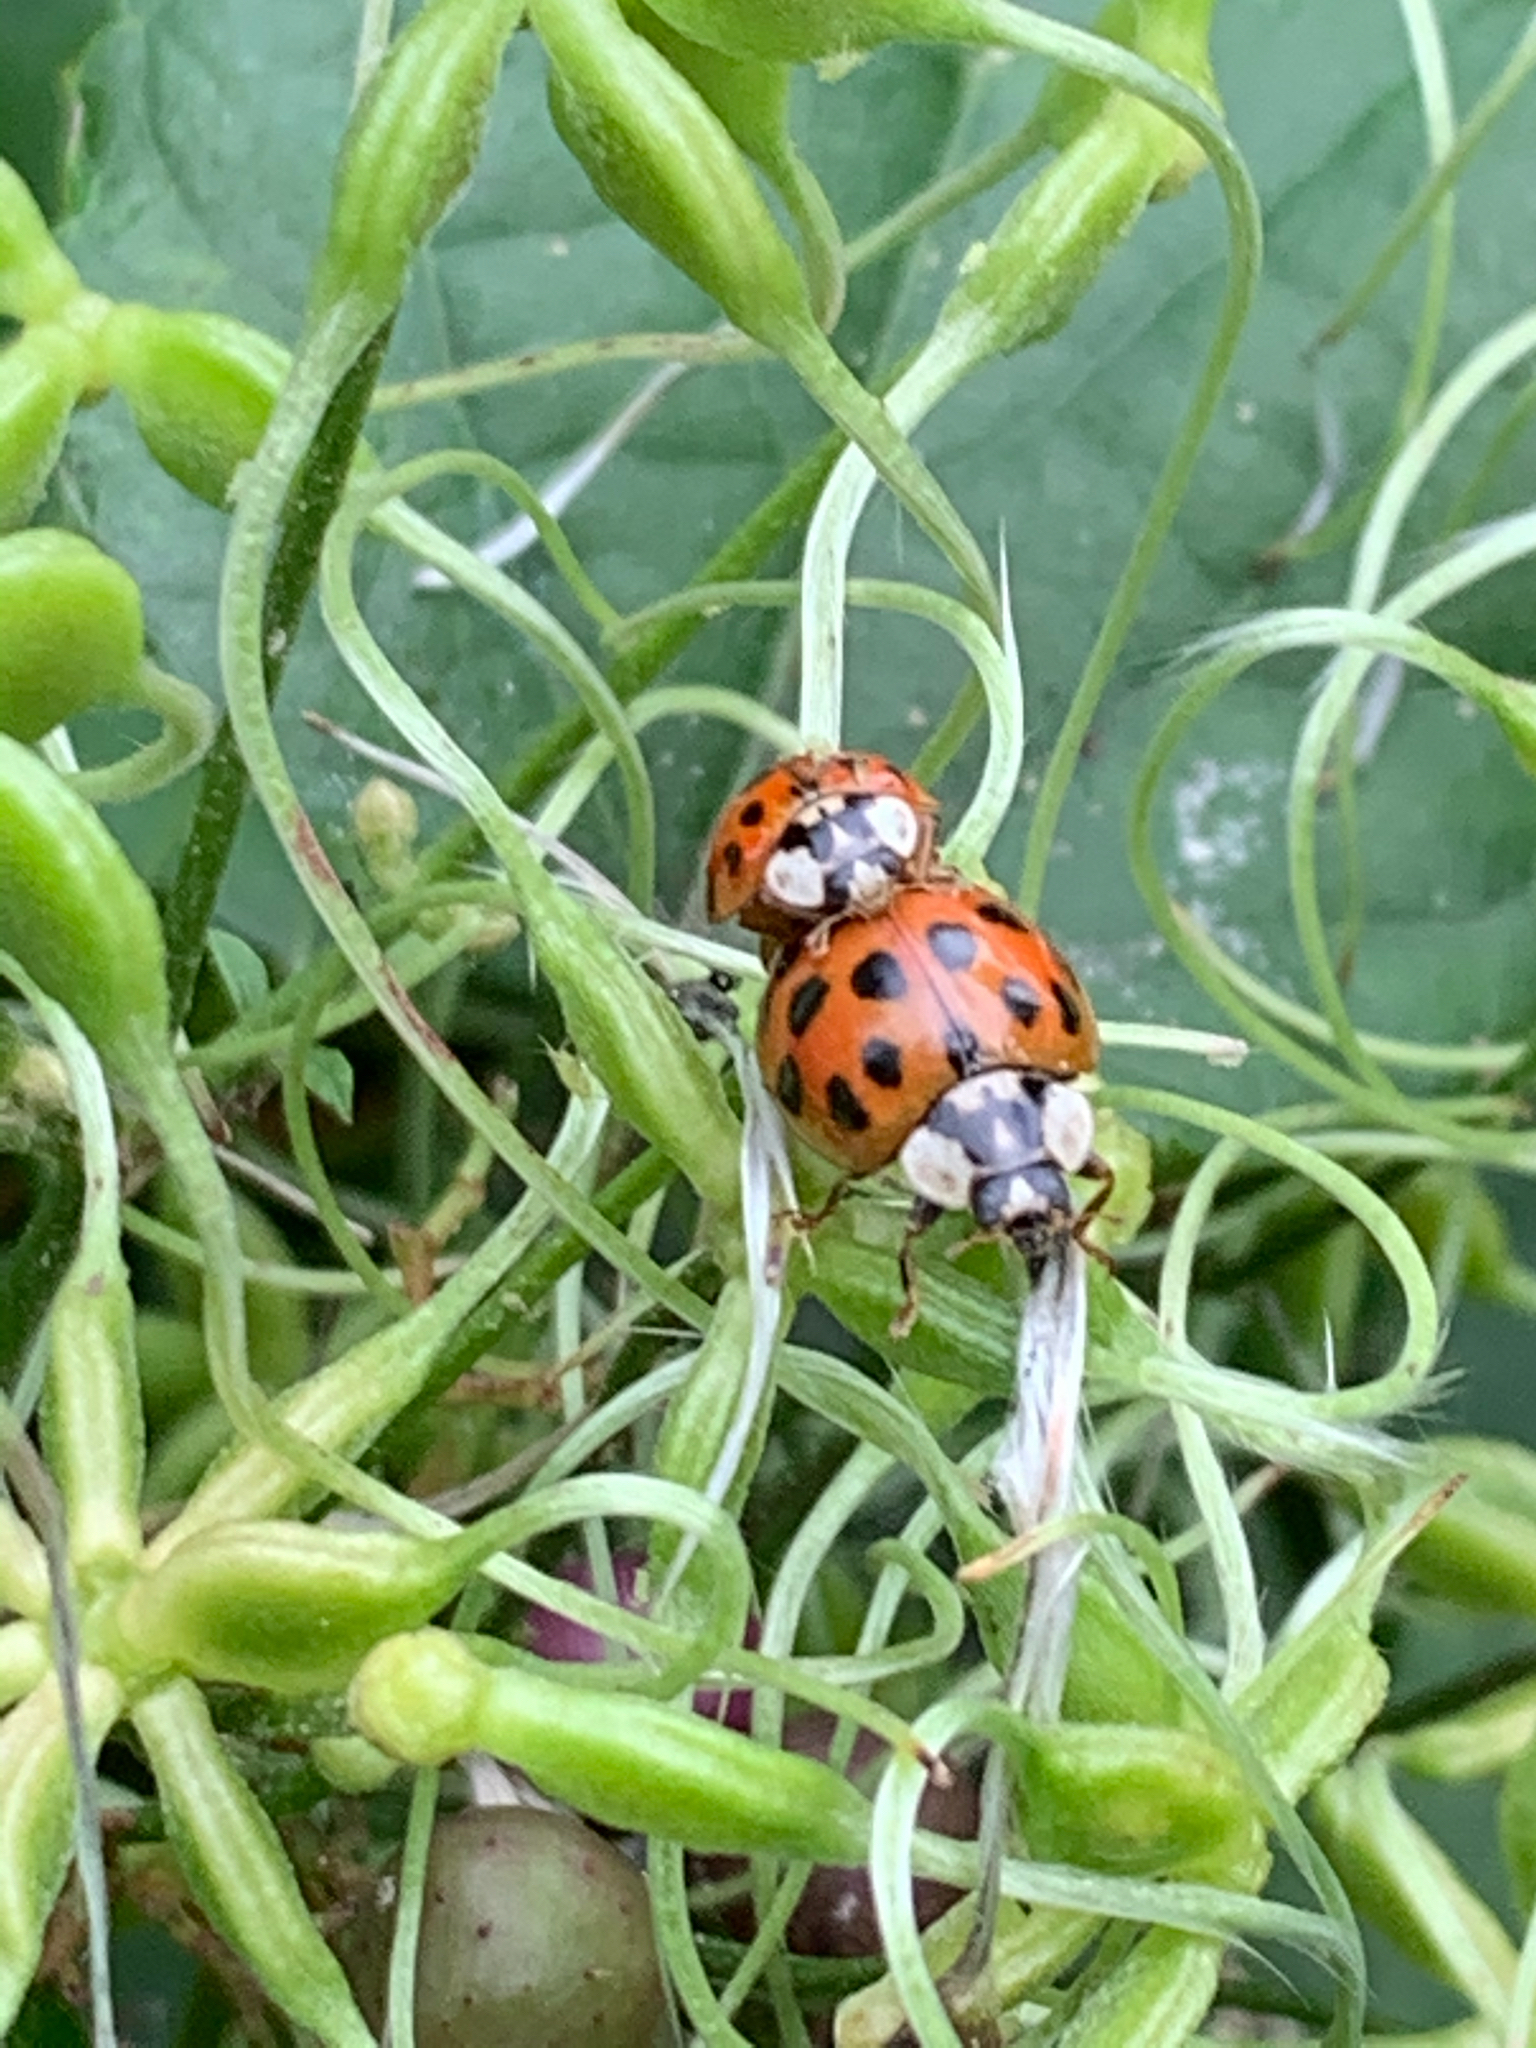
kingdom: Animalia
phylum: Arthropoda
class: Insecta
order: Coleoptera
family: Coccinellidae
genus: Harmonia
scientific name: Harmonia axyridis
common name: Harlequin ladybird
